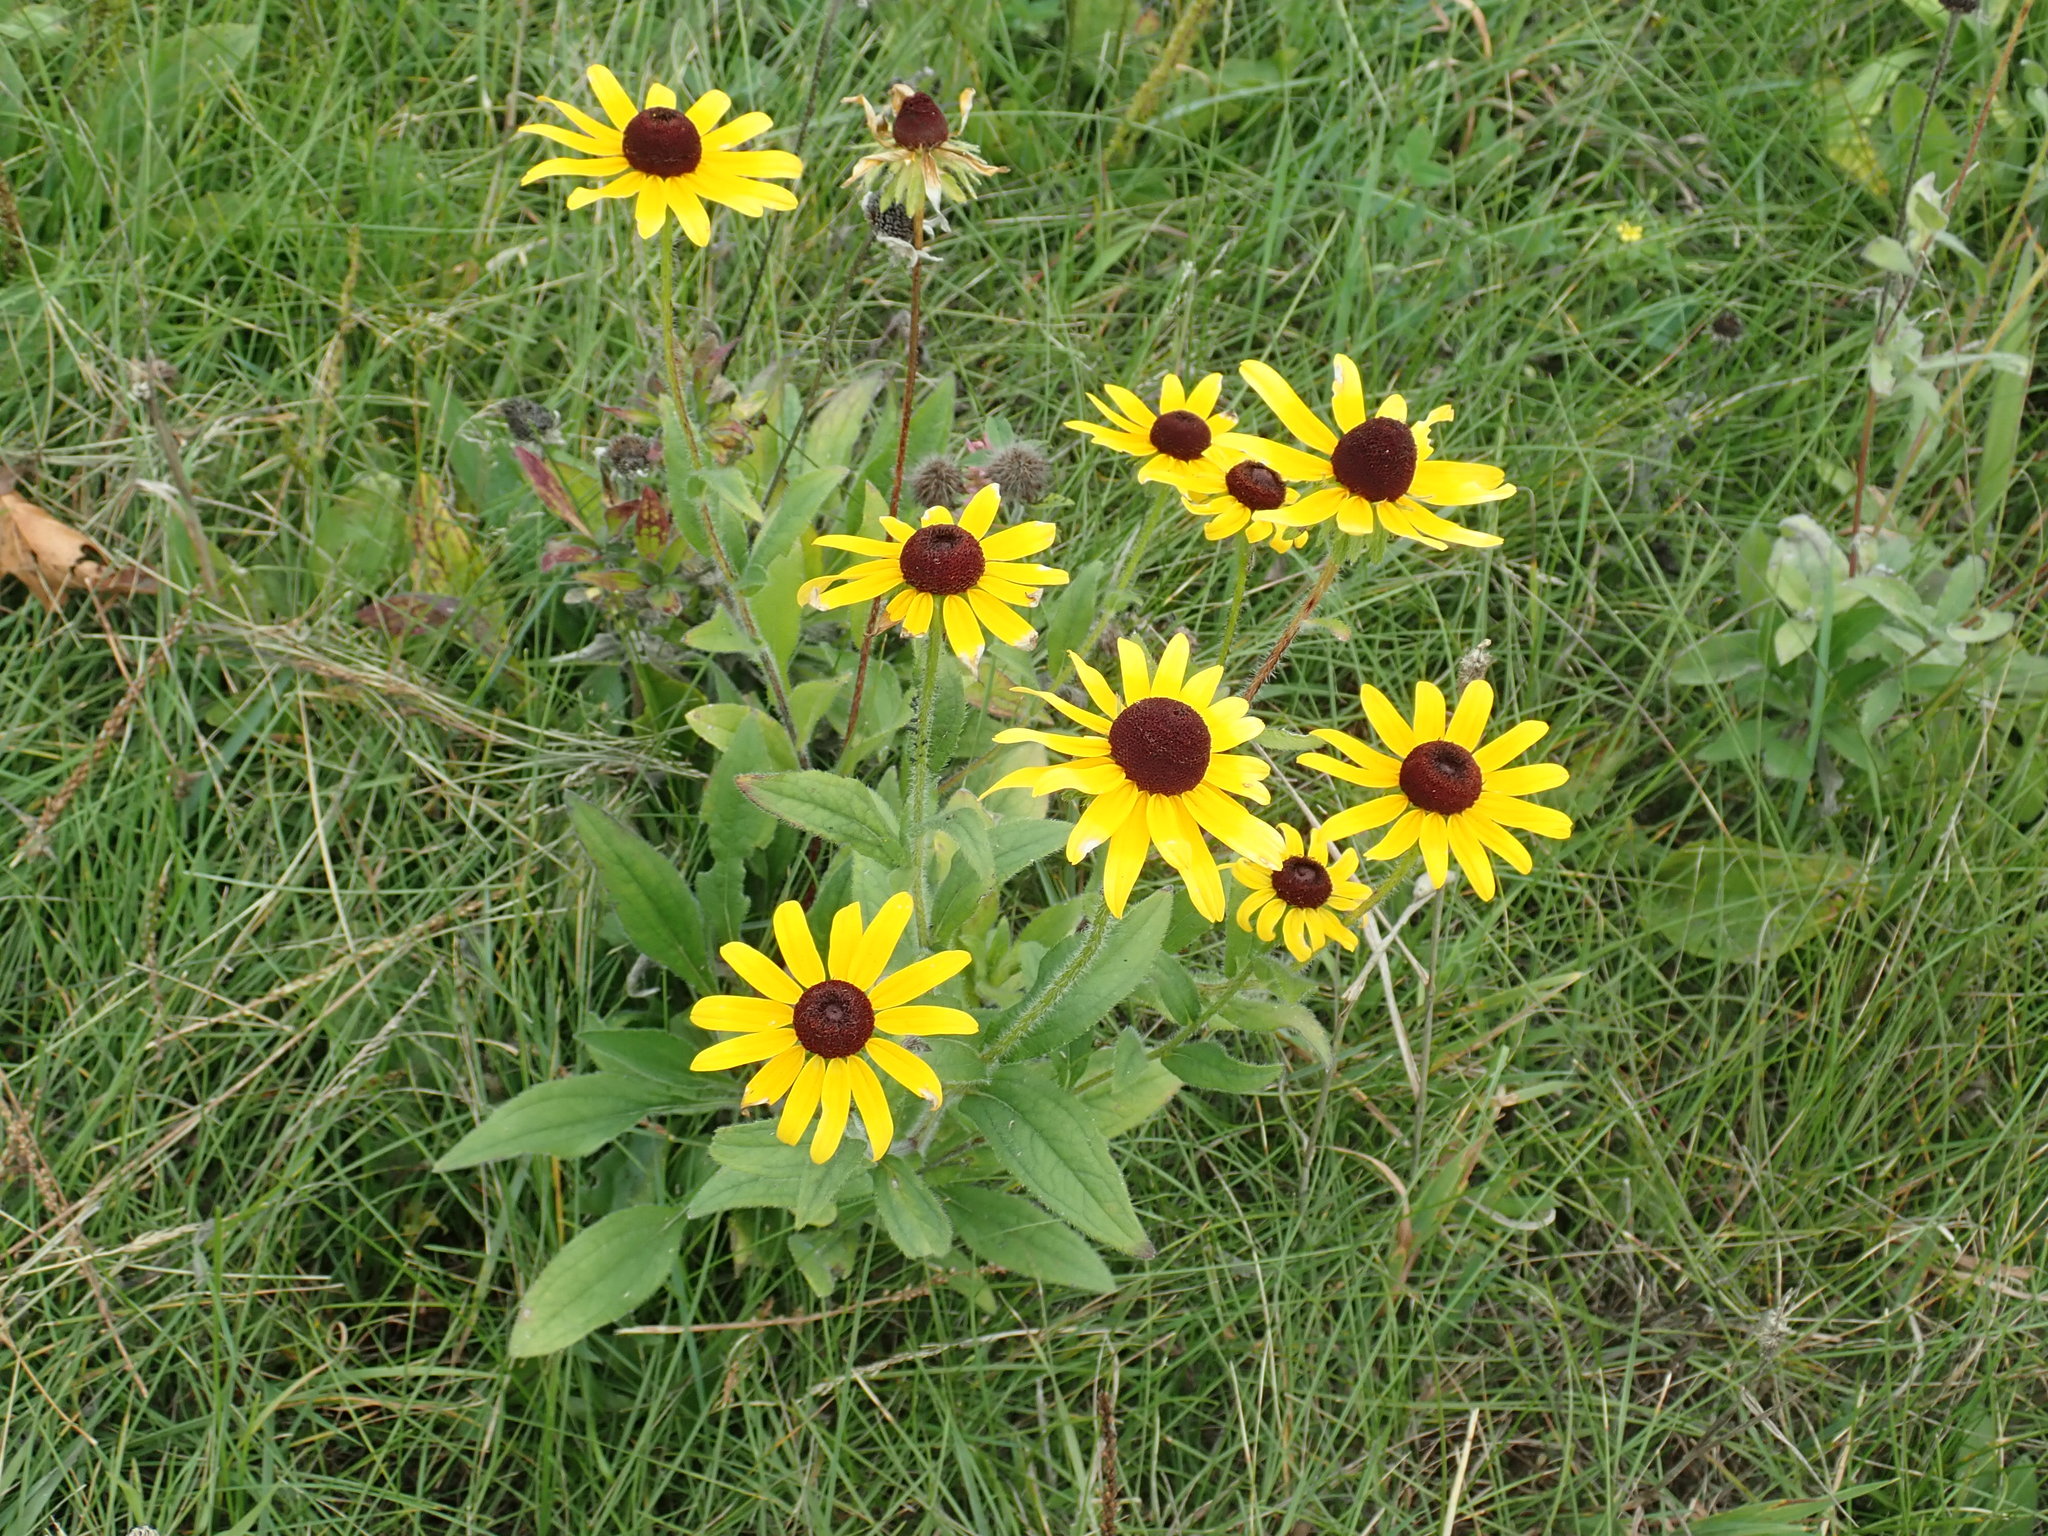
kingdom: Plantae
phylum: Tracheophyta
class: Magnoliopsida
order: Asterales
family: Asteraceae
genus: Rudbeckia
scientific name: Rudbeckia hirta
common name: Black-eyed-susan
